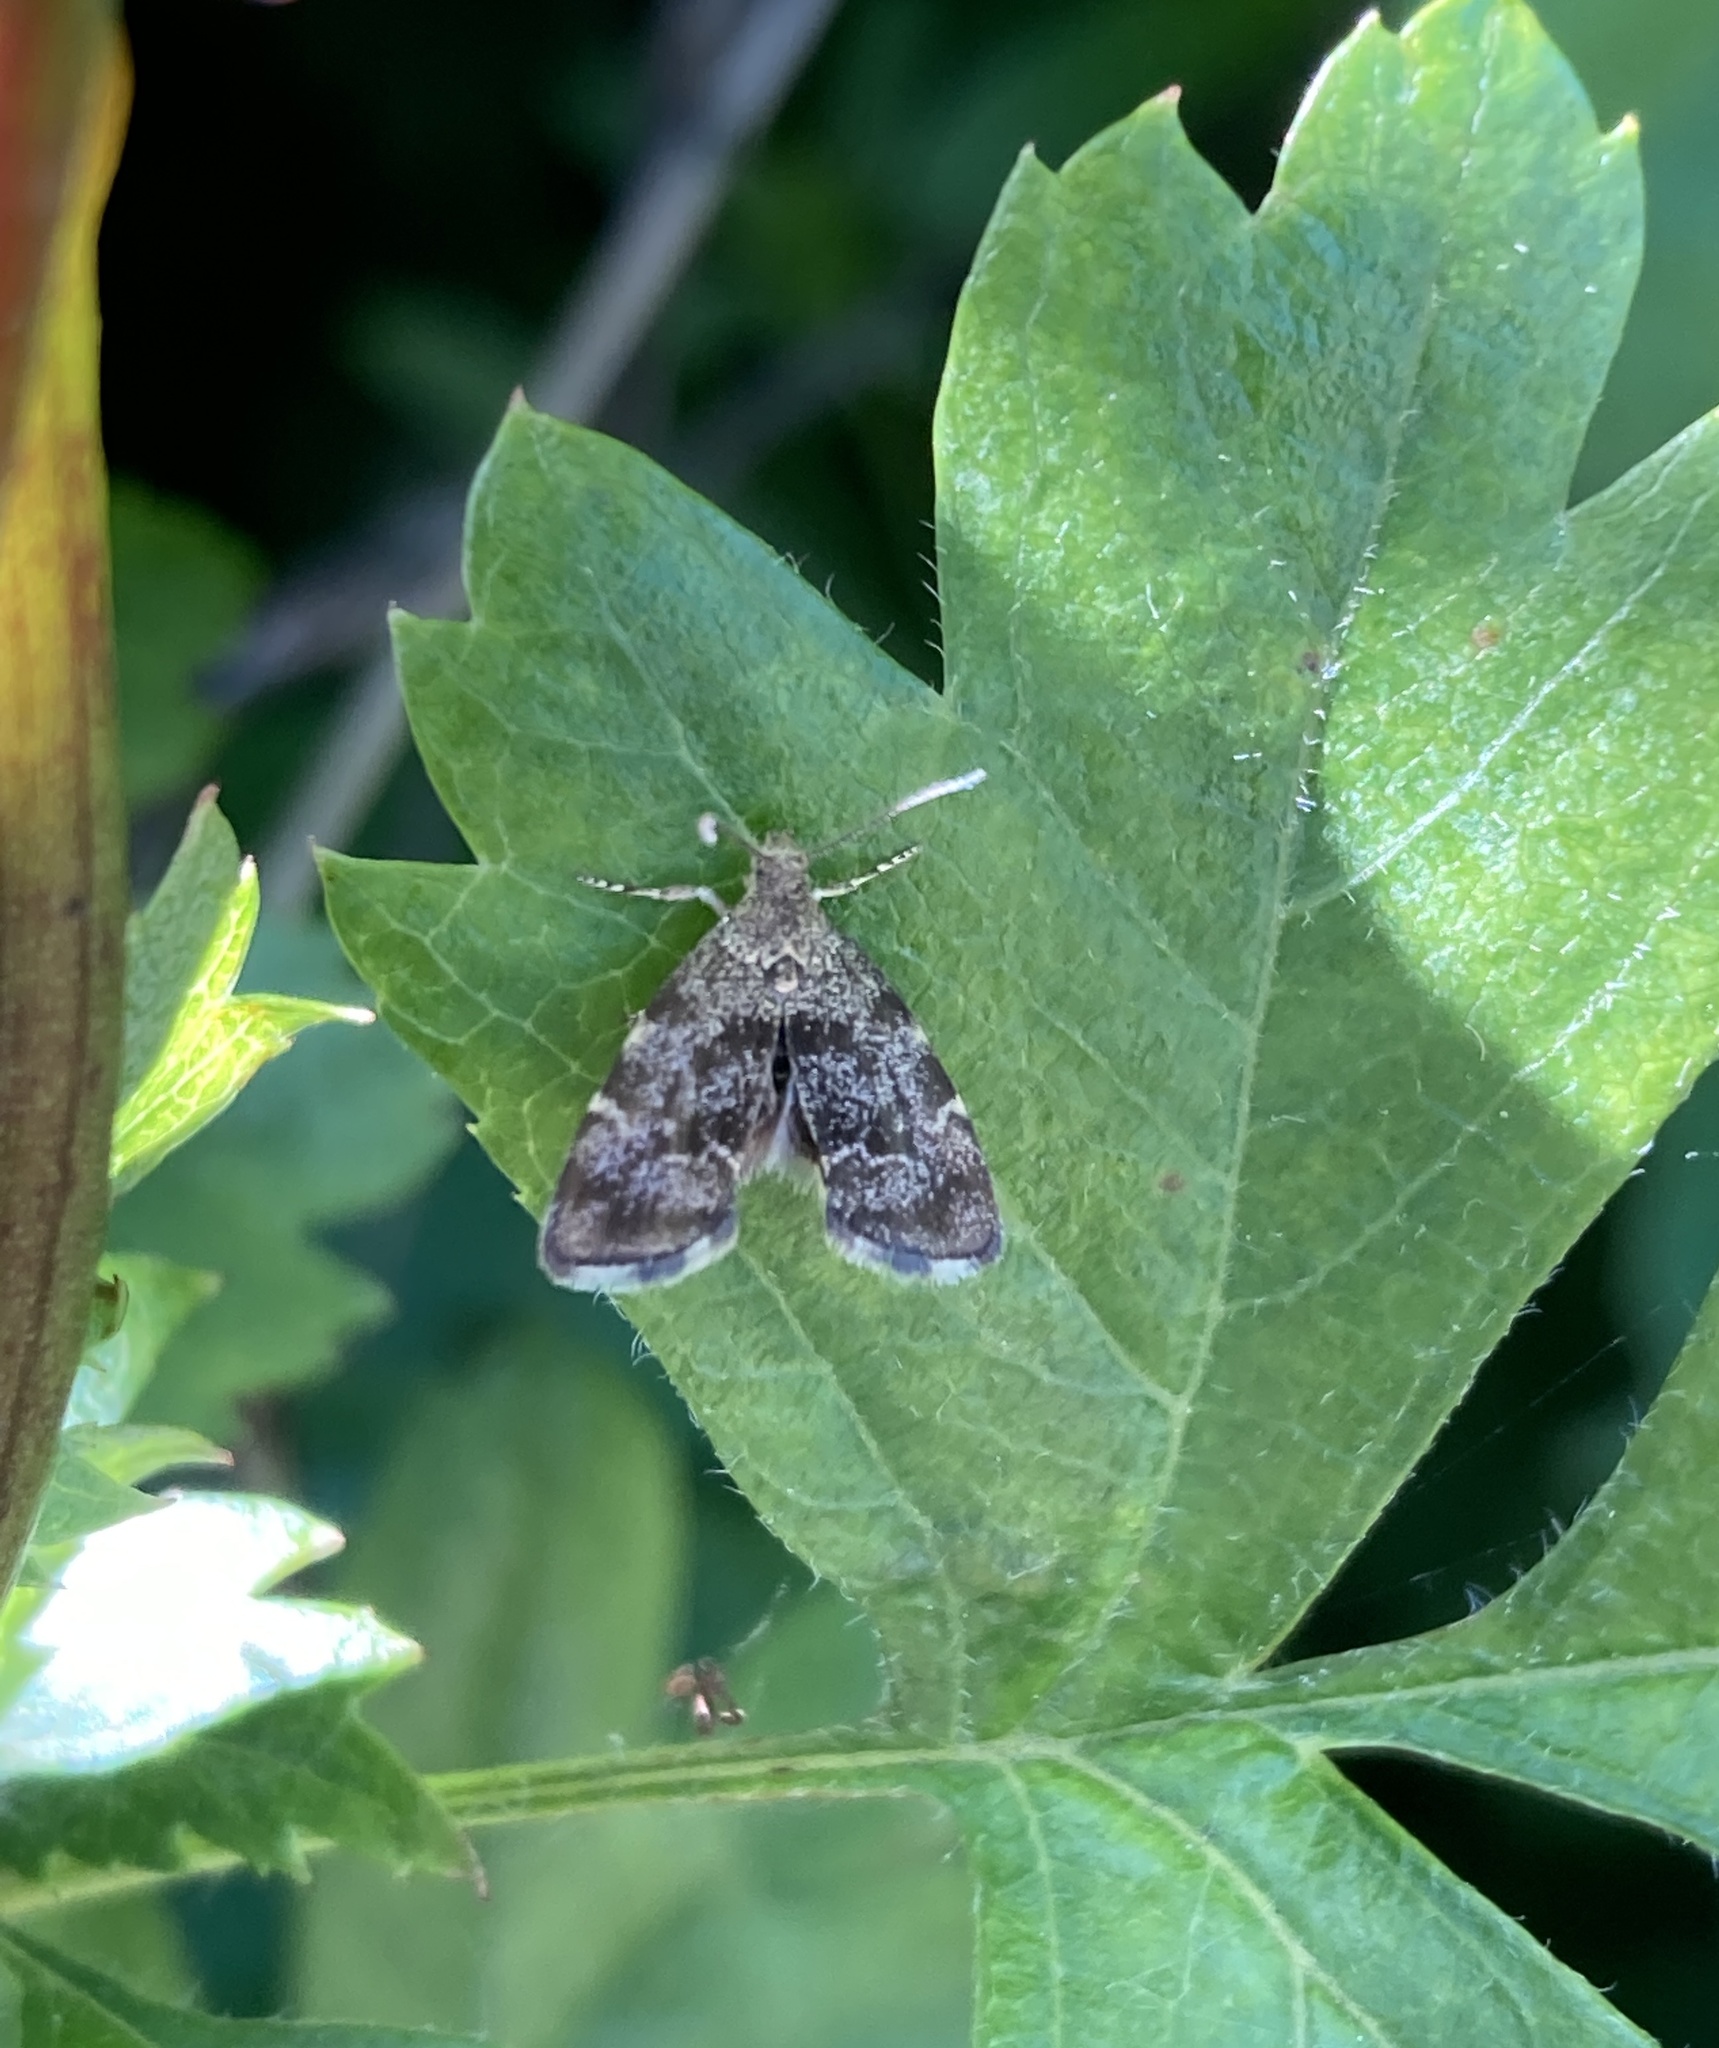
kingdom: Animalia
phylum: Arthropoda
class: Insecta
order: Lepidoptera
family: Choreutidae
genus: Anthophila
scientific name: Anthophila fabriciana
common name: Nettle-tap
